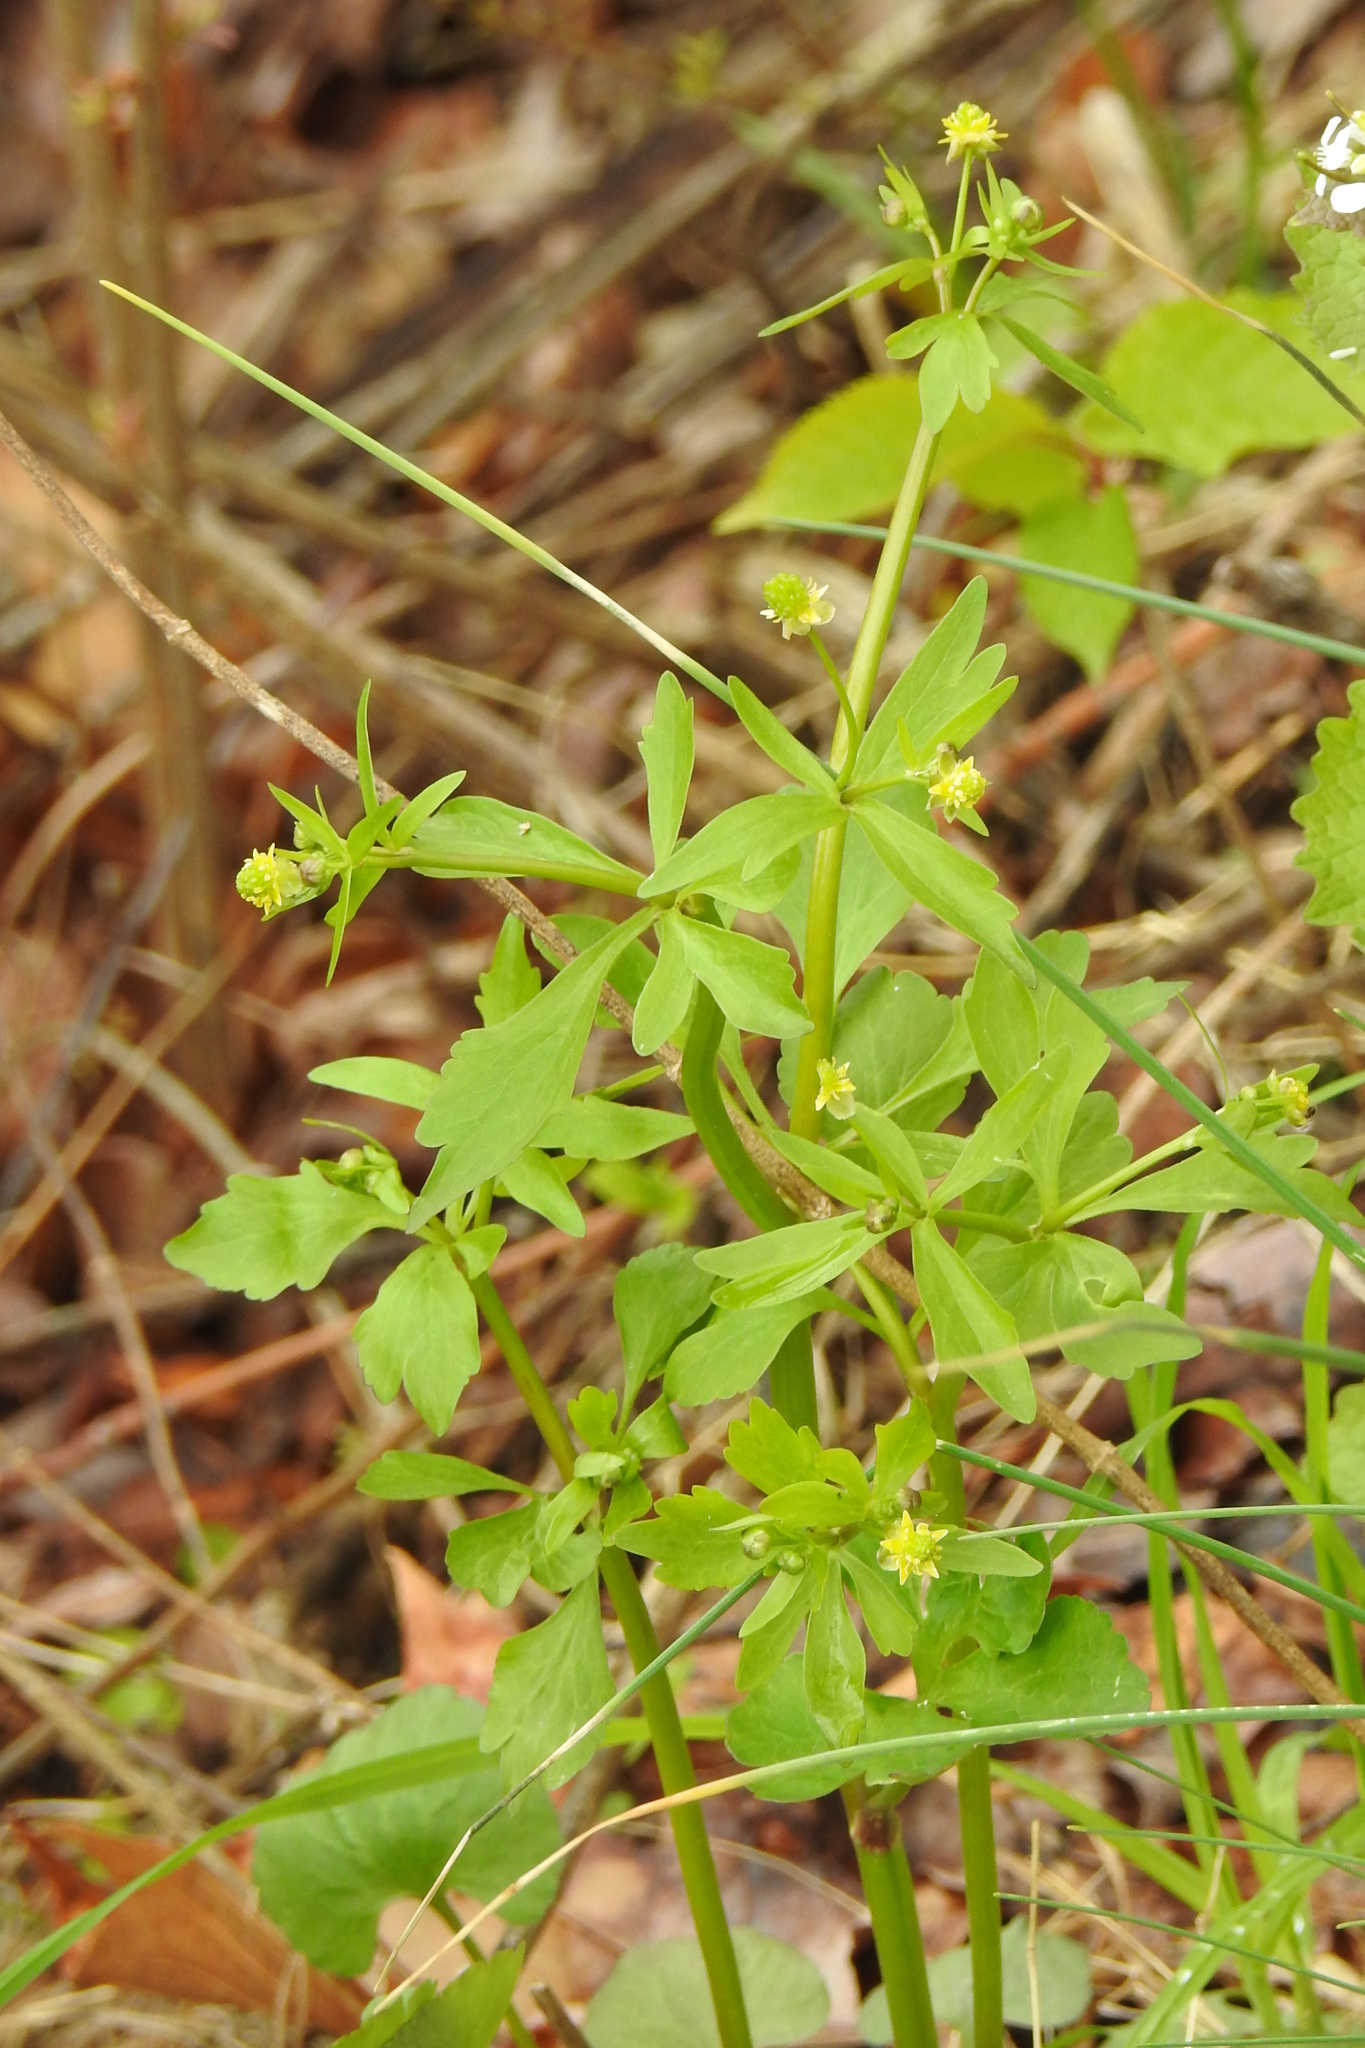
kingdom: Plantae
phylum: Tracheophyta
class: Magnoliopsida
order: Ranunculales
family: Ranunculaceae
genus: Ranunculus
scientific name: Ranunculus abortivus
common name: Early wood buttercup
